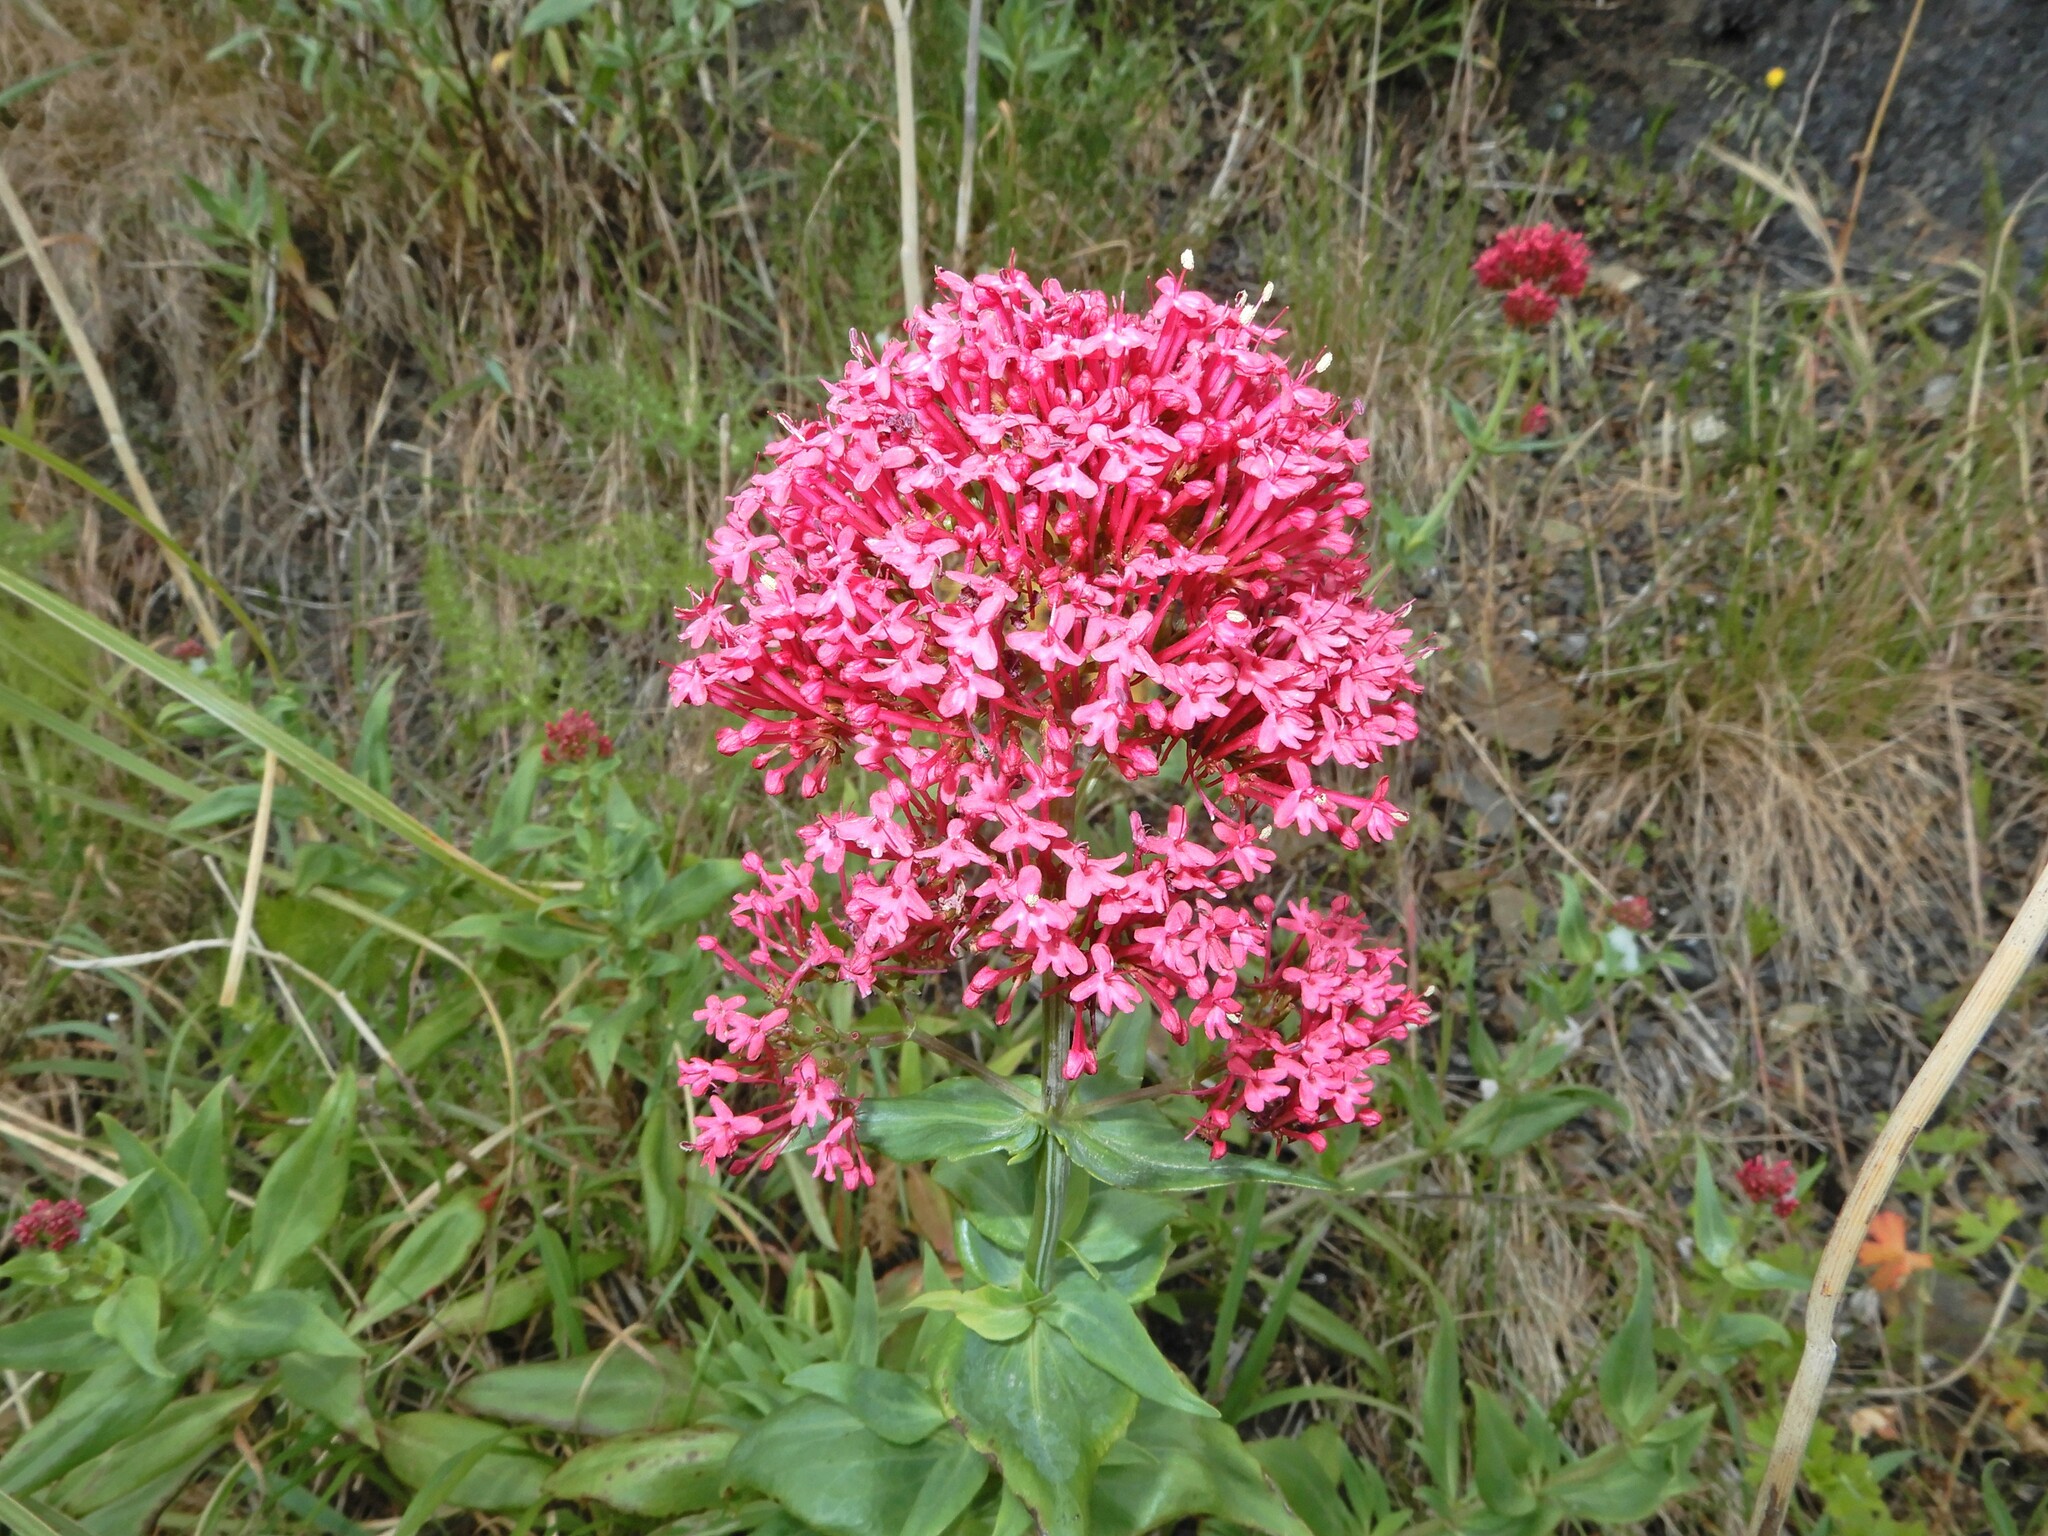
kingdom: Plantae
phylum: Tracheophyta
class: Magnoliopsida
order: Dipsacales
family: Caprifoliaceae
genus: Centranthus
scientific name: Centranthus ruber
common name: Red valerian
